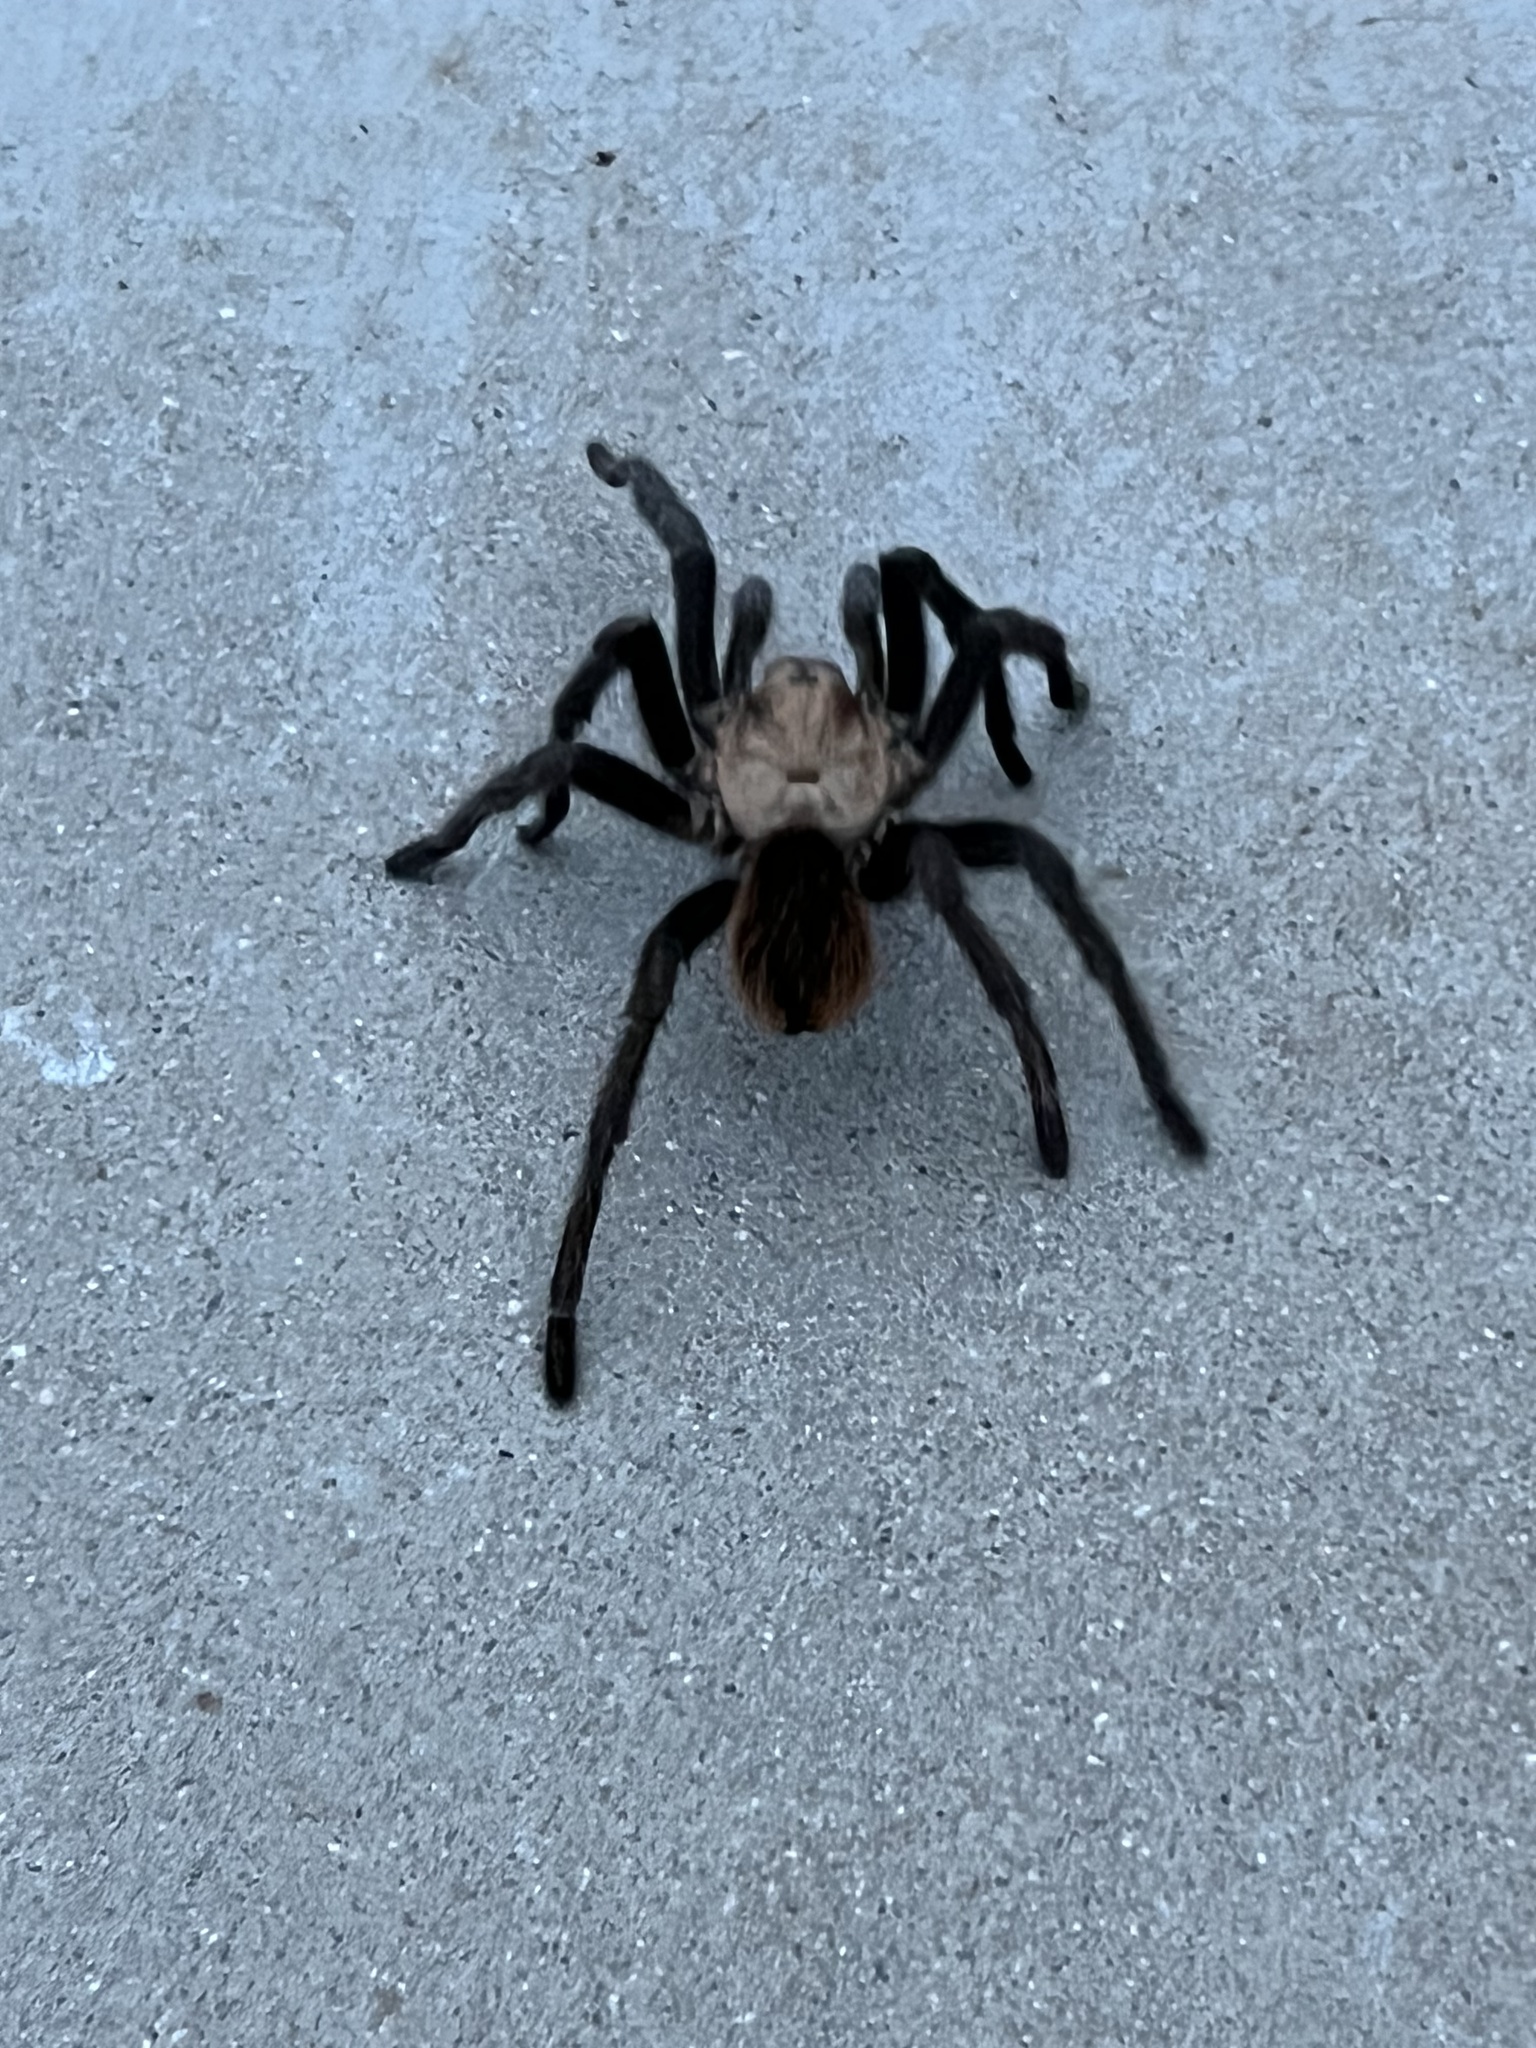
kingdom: Animalia
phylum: Arthropoda
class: Arachnida
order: Araneae
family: Theraphosidae
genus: Aphonopelma
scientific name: Aphonopelma hentzi
